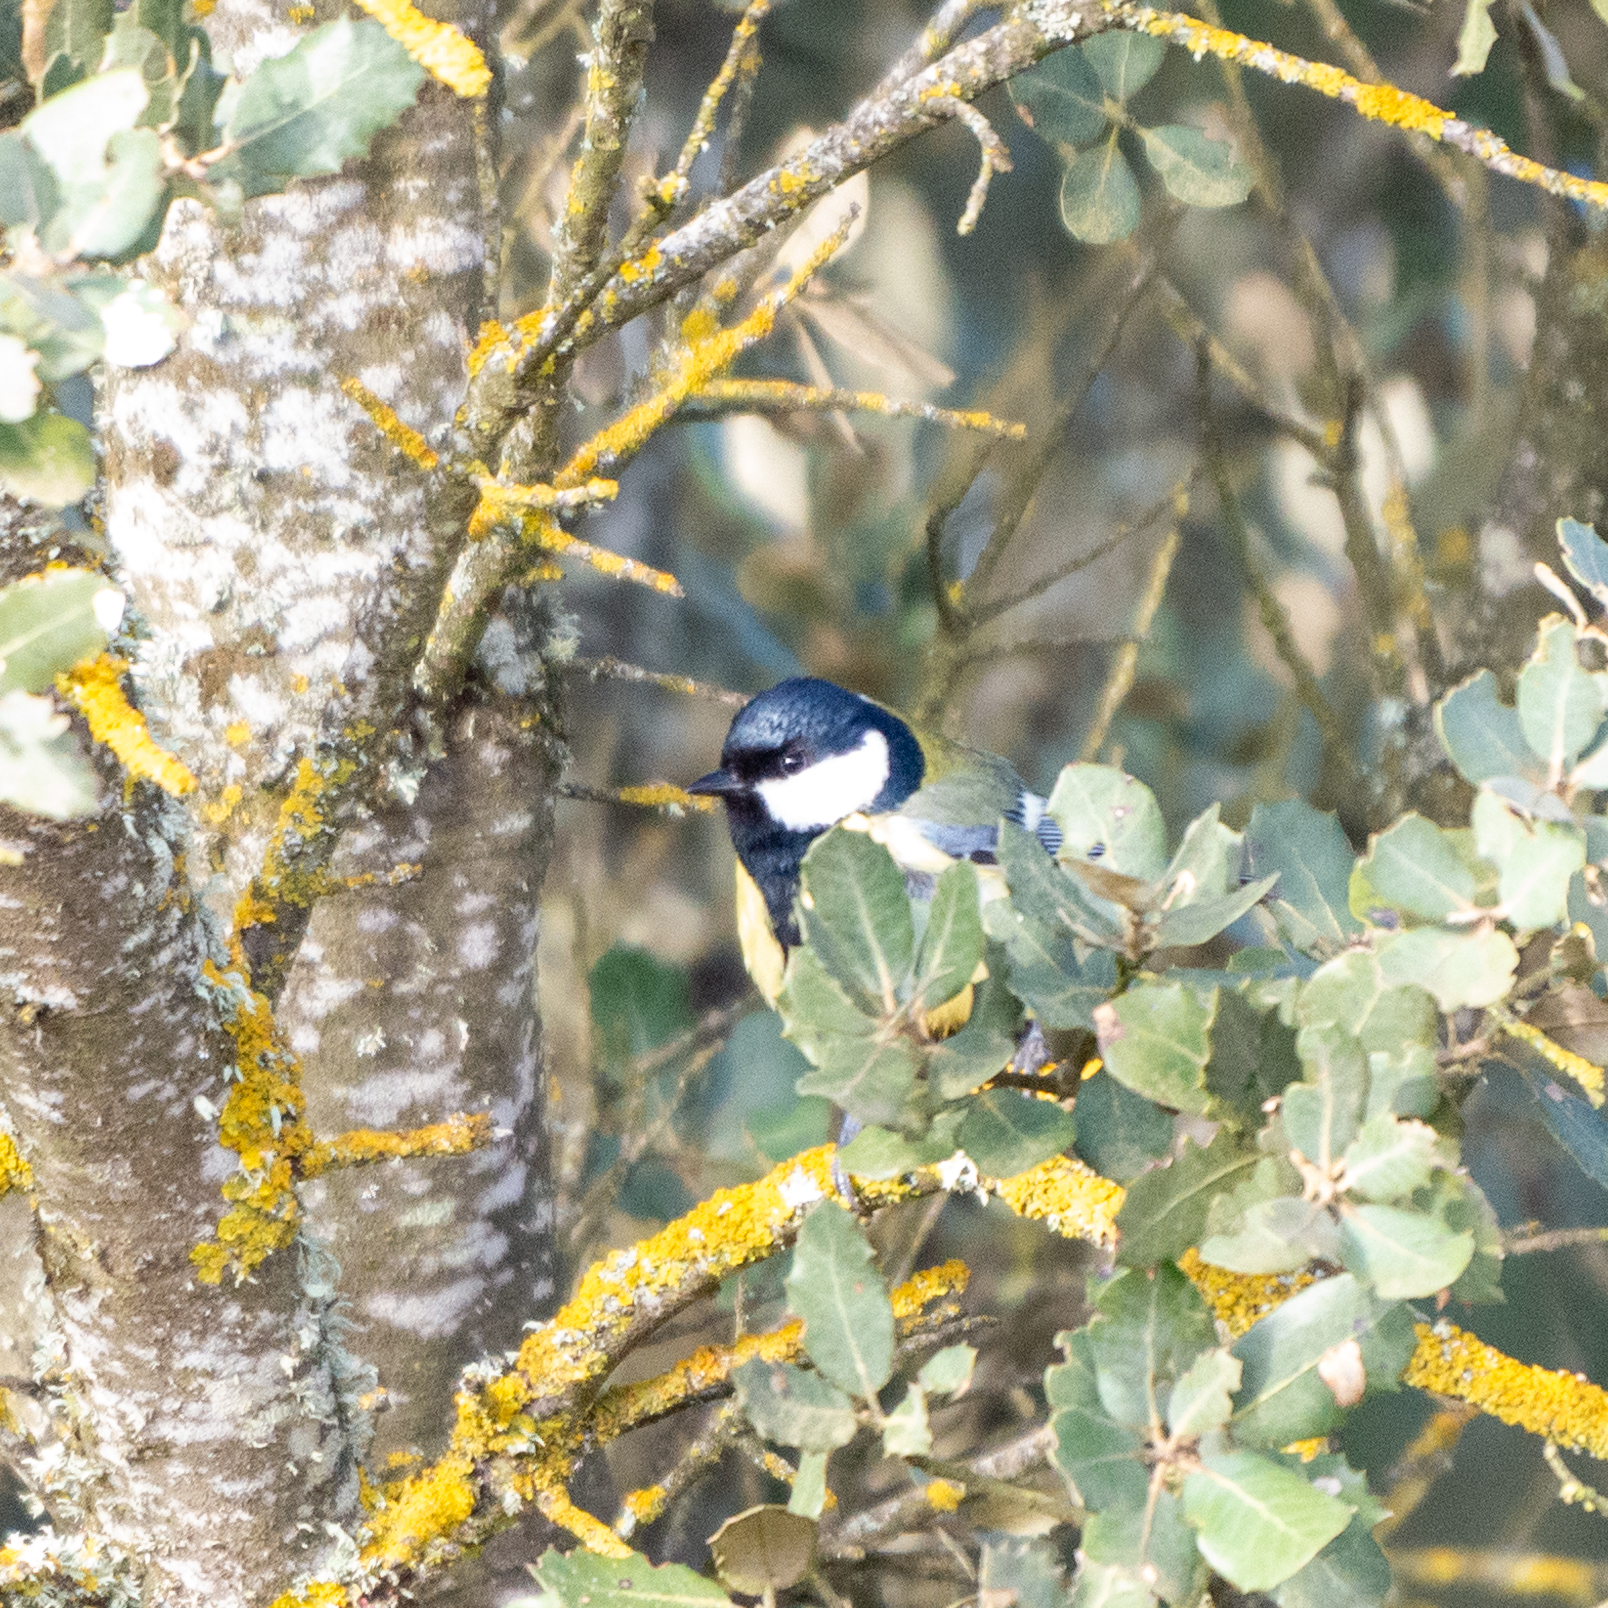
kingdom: Animalia
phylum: Chordata
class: Aves
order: Passeriformes
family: Paridae
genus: Parus
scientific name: Parus major
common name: Great tit
